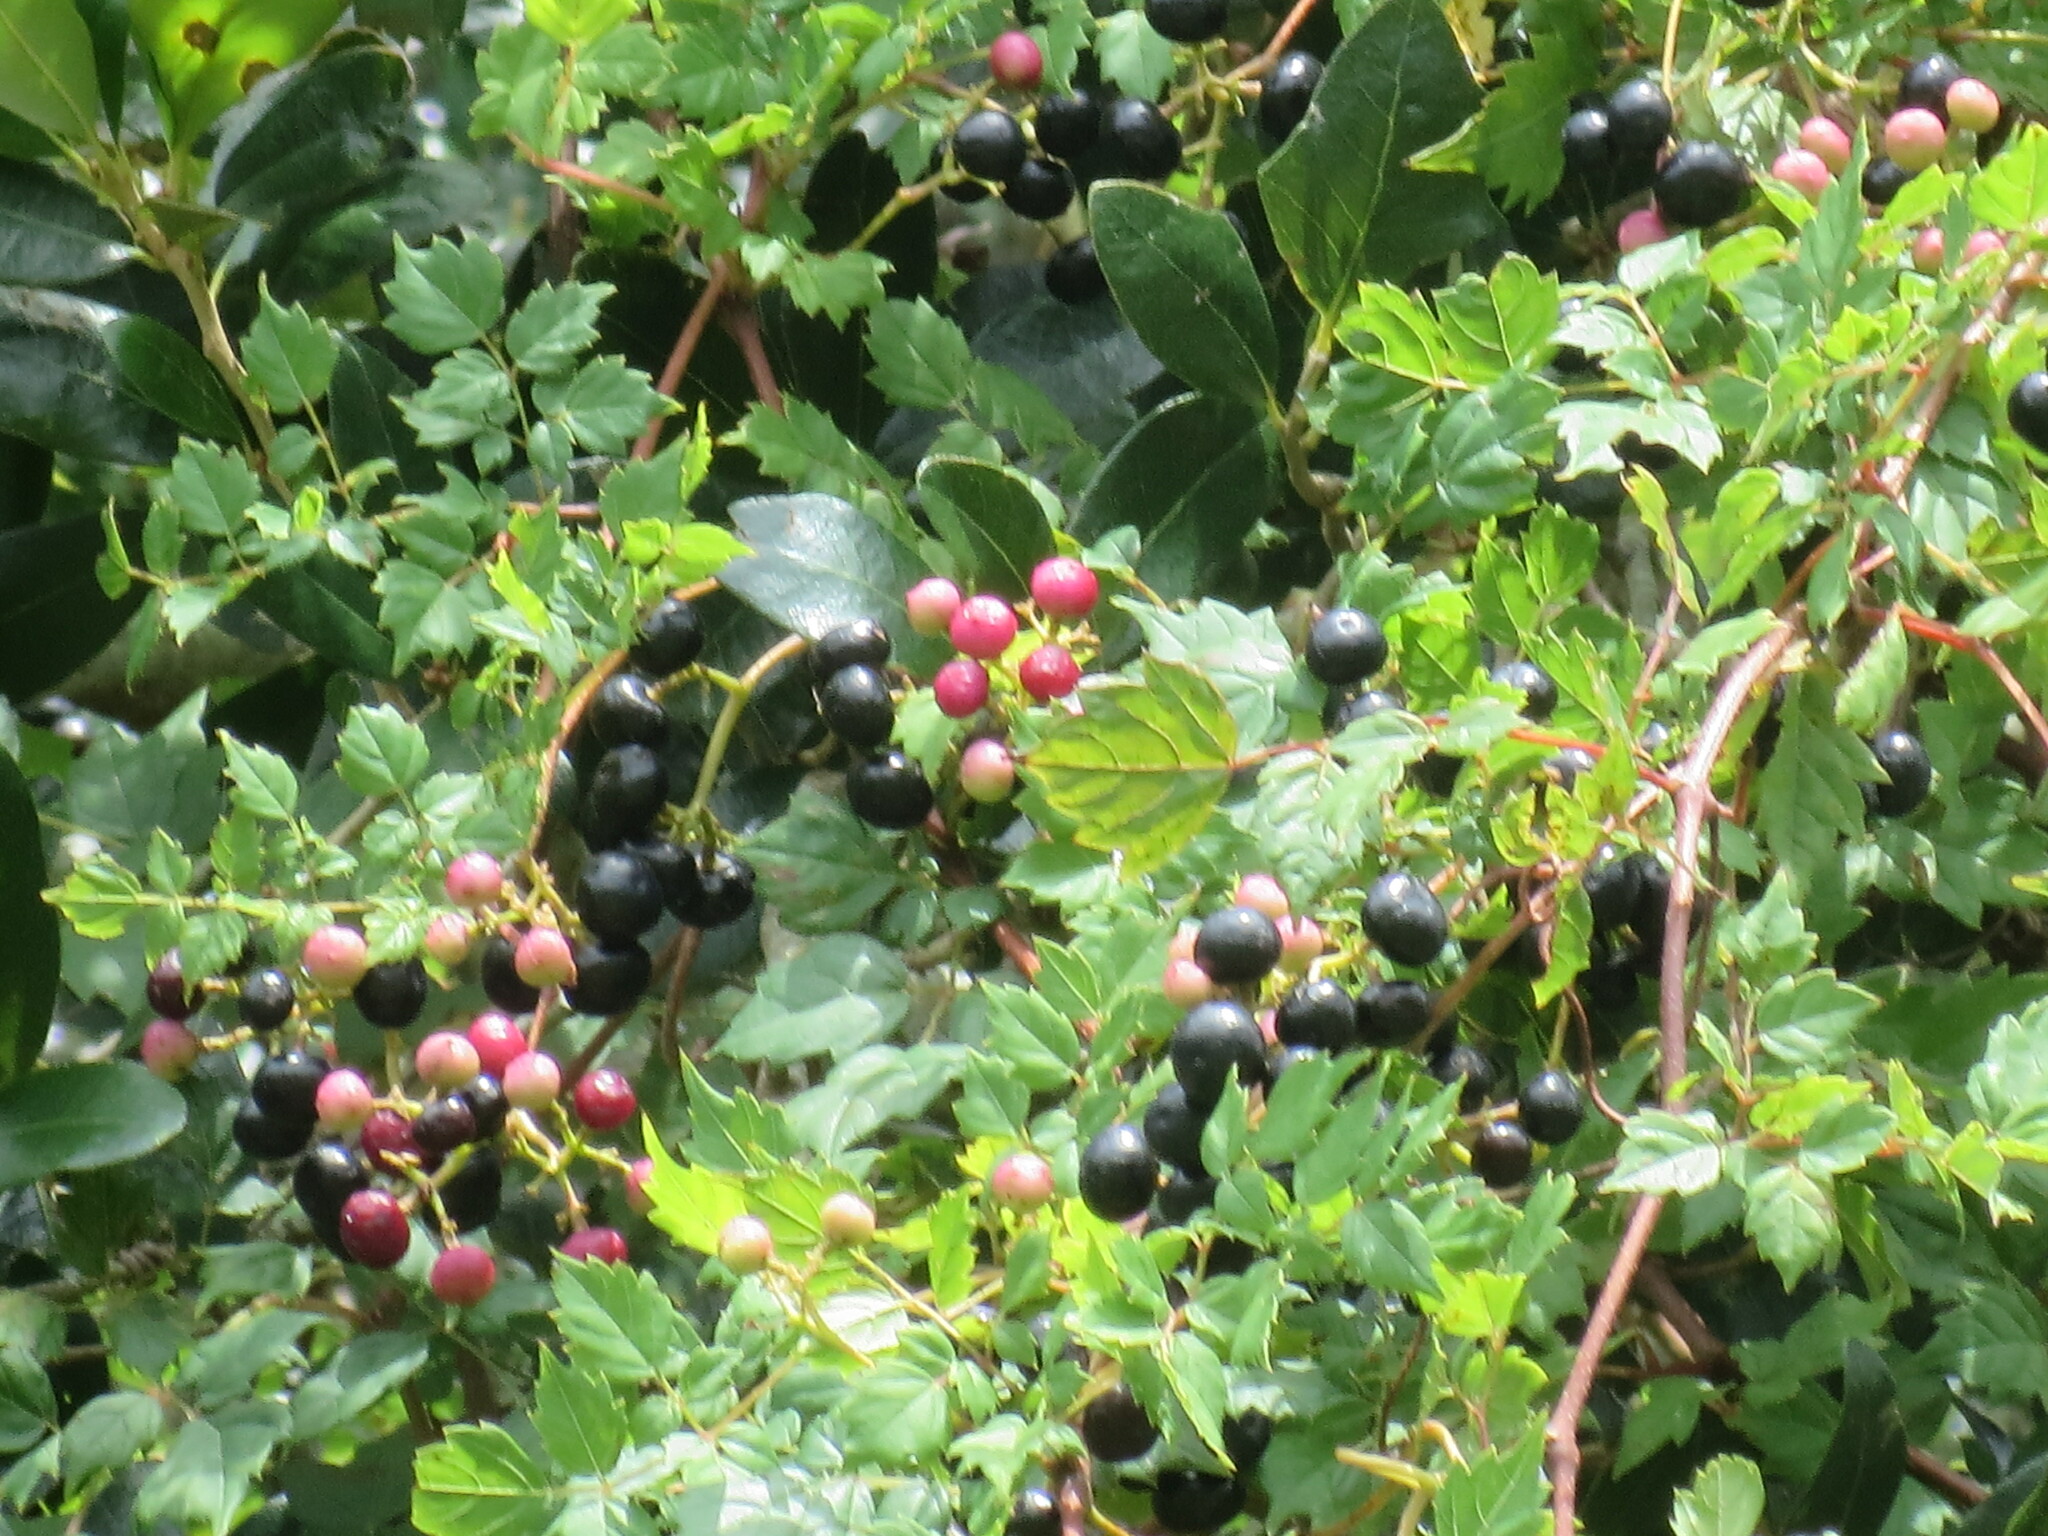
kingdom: Plantae
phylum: Tracheophyta
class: Magnoliopsida
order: Vitales
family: Vitaceae
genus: Nekemias
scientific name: Nekemias arborea
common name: Peppervine
